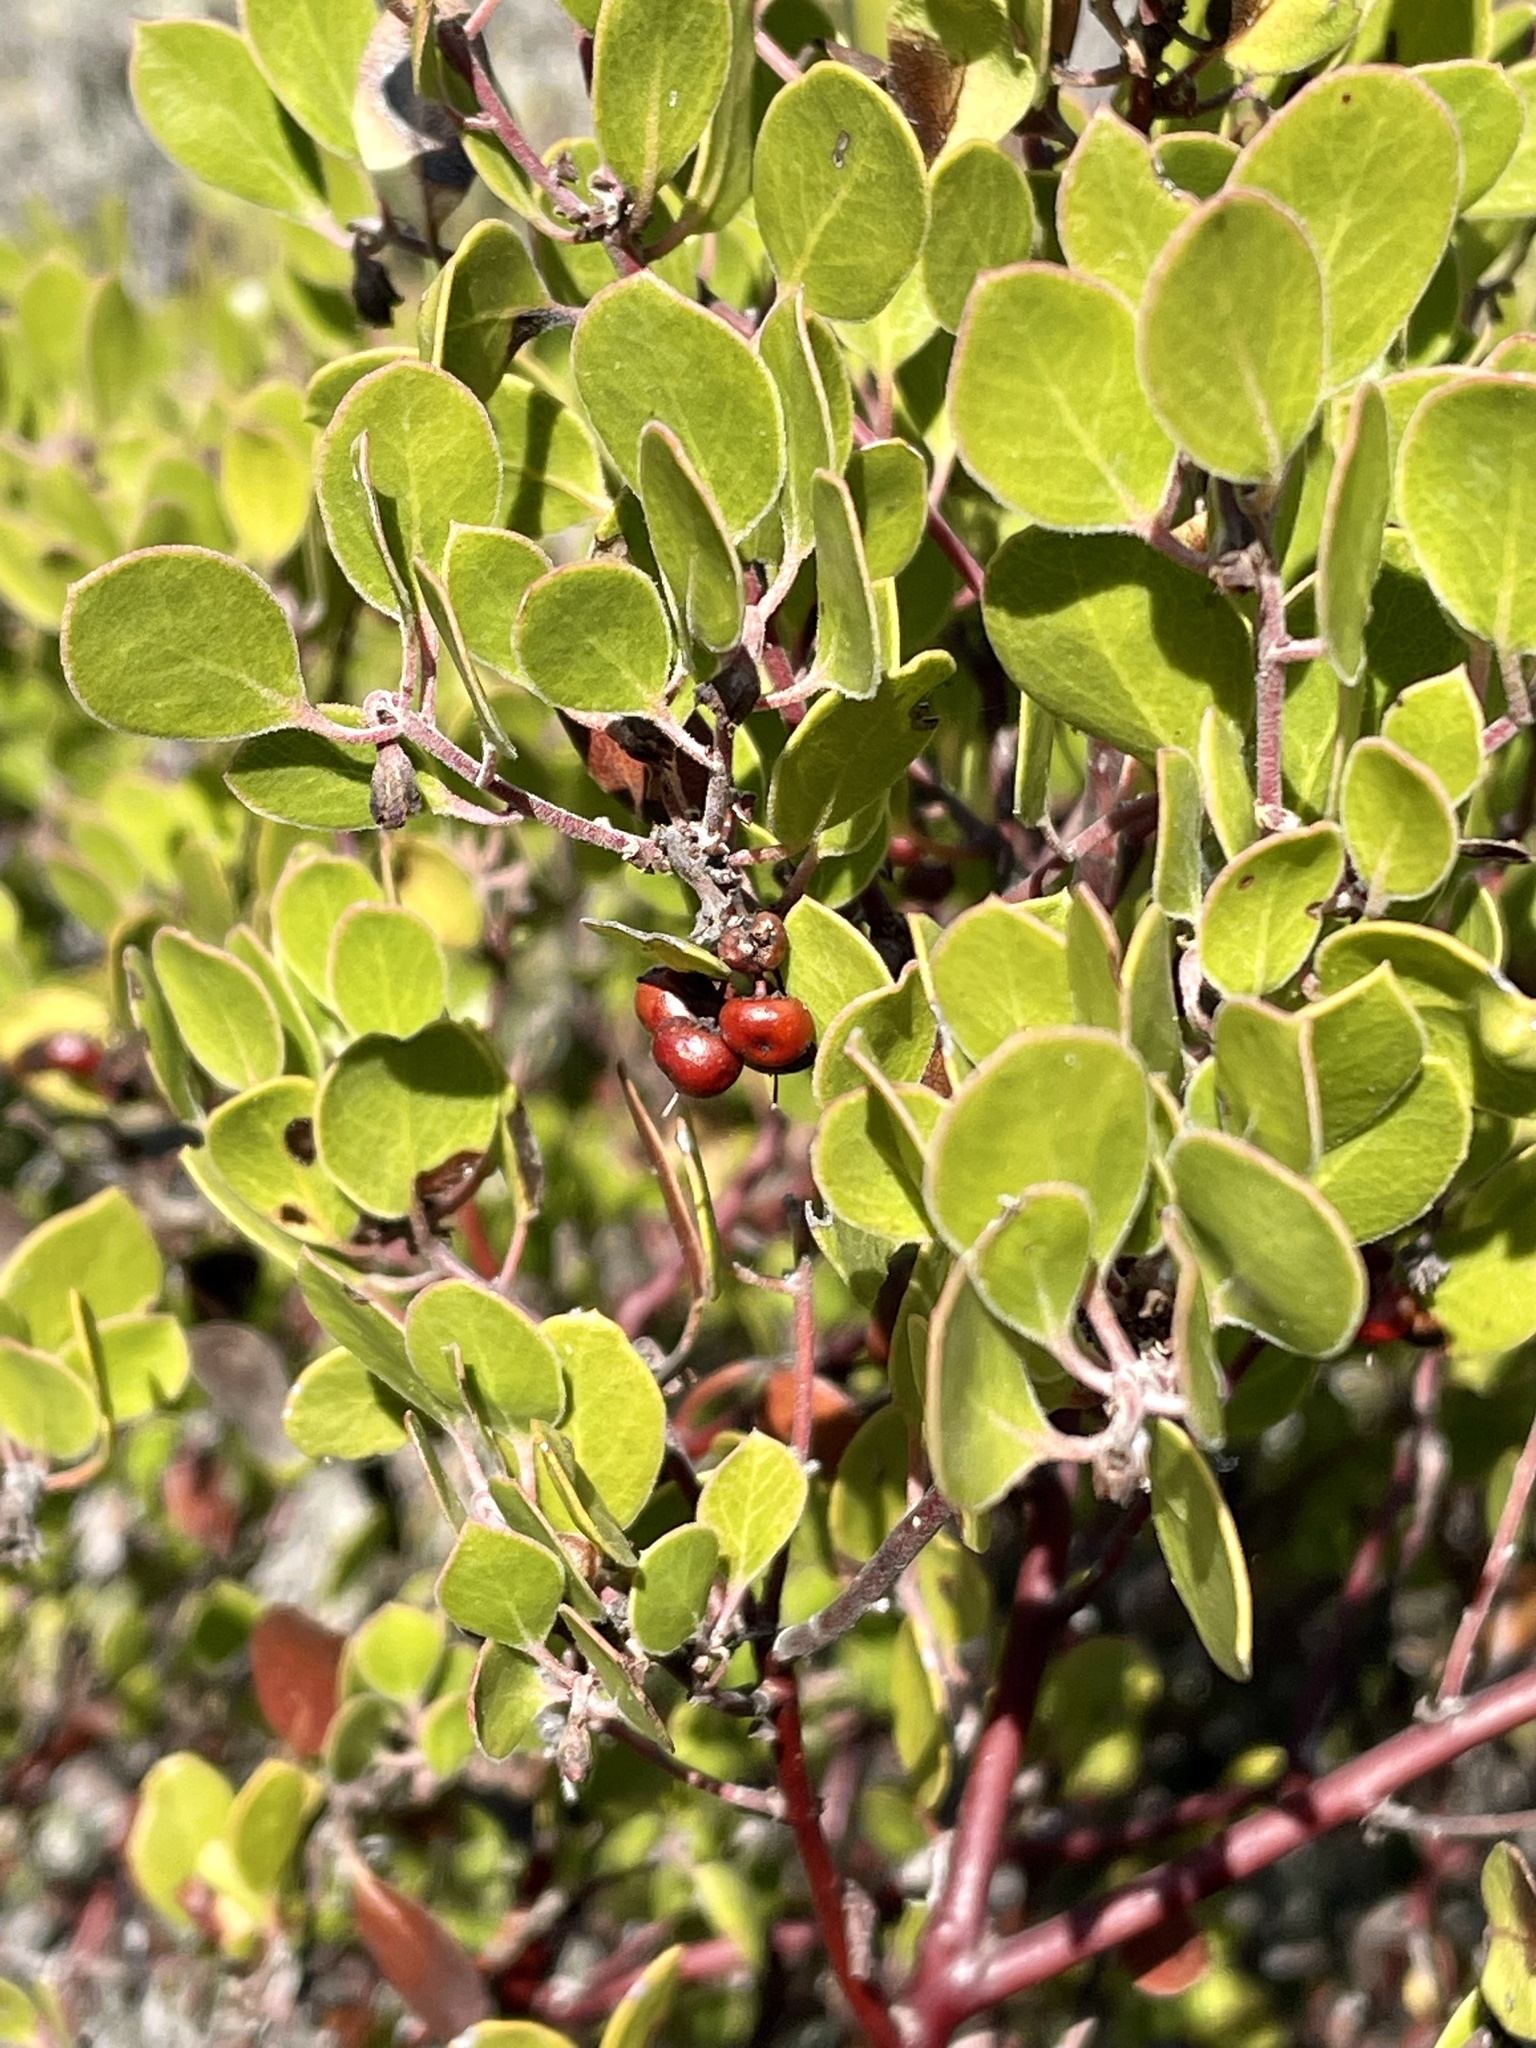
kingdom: Plantae
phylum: Tracheophyta
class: Magnoliopsida
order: Ericales
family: Ericaceae
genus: Arctostaphylos
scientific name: Arctostaphylos hookeri
